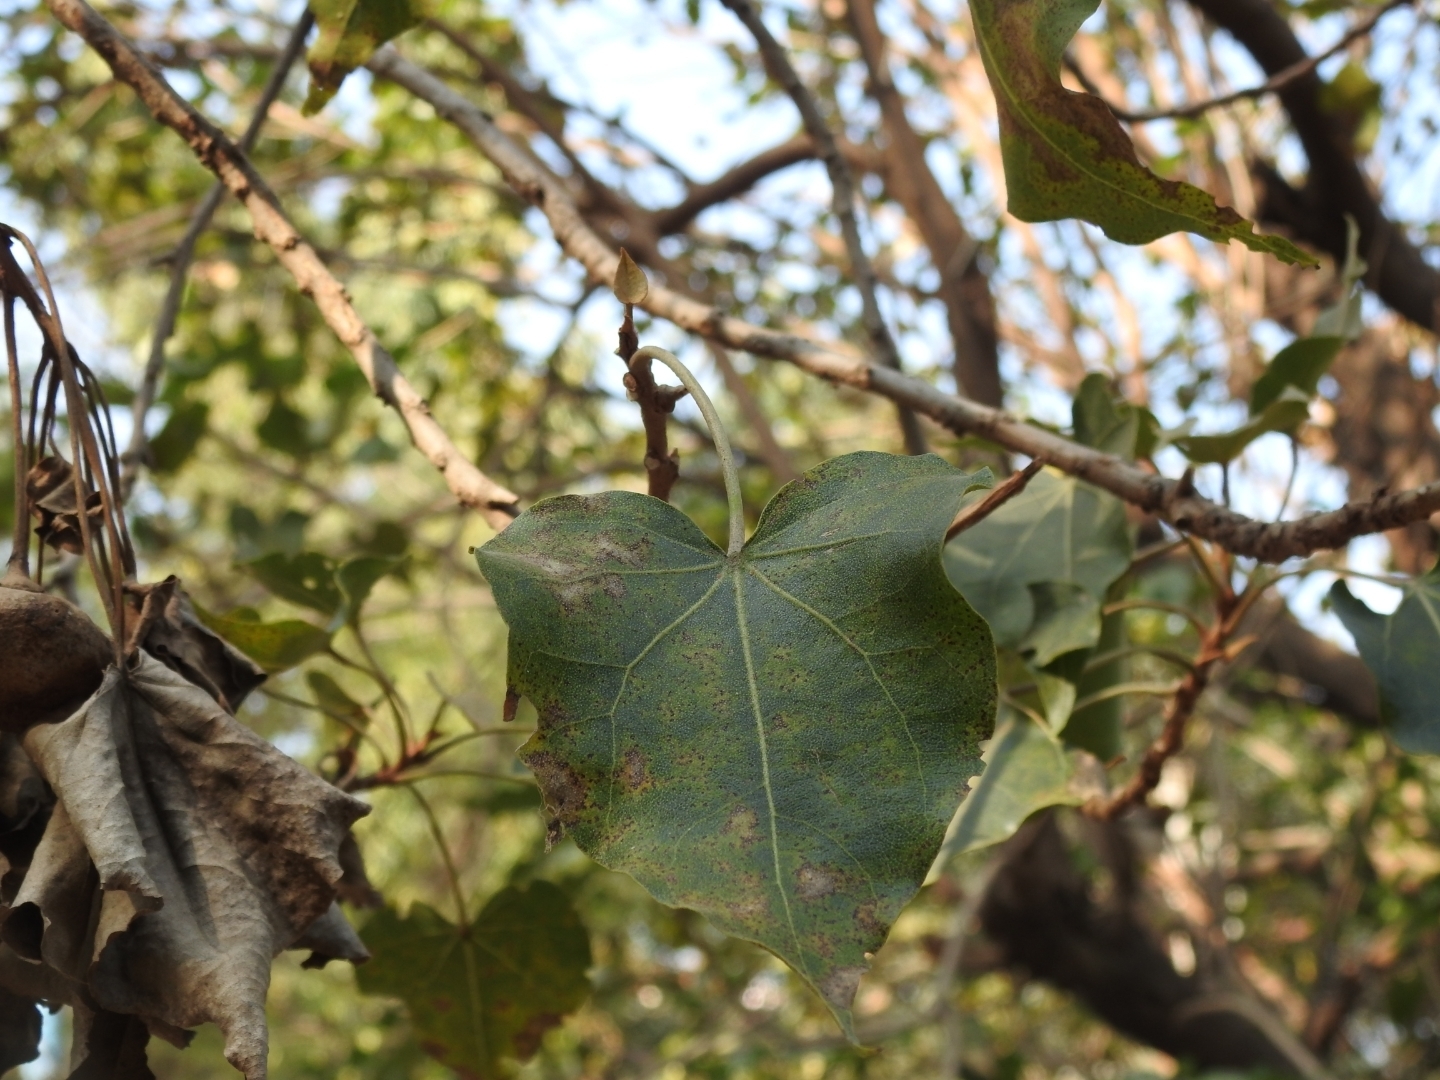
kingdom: Plantae
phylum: Tracheophyta
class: Magnoliopsida
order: Malvales
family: Malvaceae
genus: Thespesia
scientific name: Thespesia populnea
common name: Seaside mahoe
